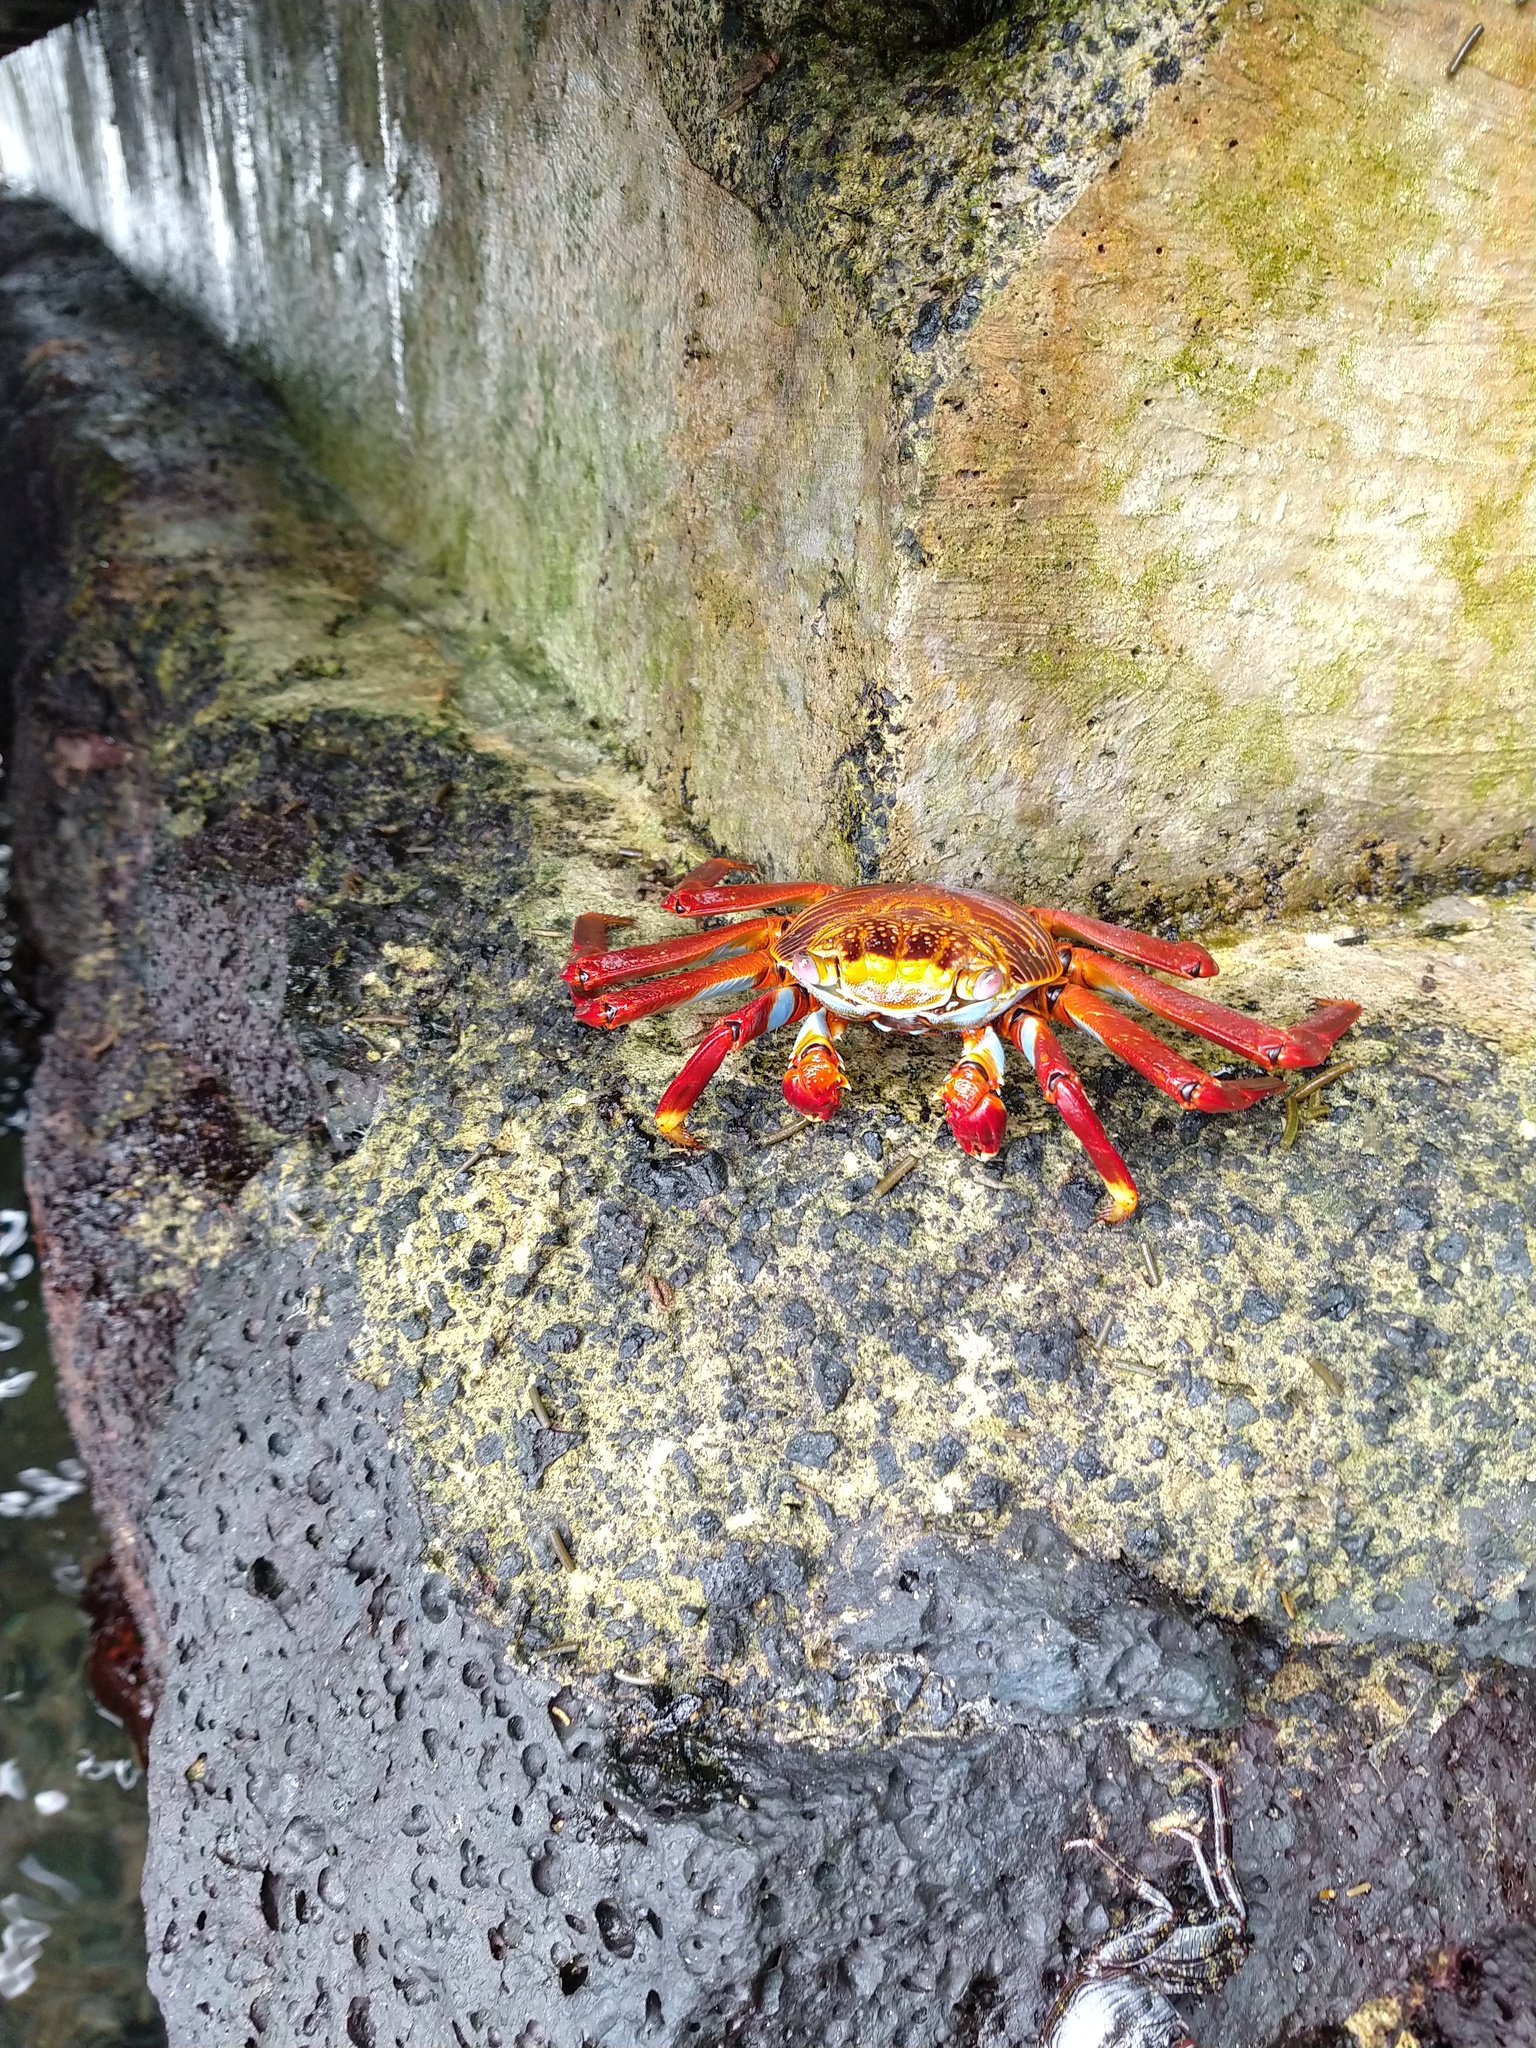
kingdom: Animalia
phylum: Arthropoda
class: Malacostraca
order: Decapoda
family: Grapsidae
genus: Grapsus
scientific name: Grapsus grapsus
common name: Sally lightfoot
